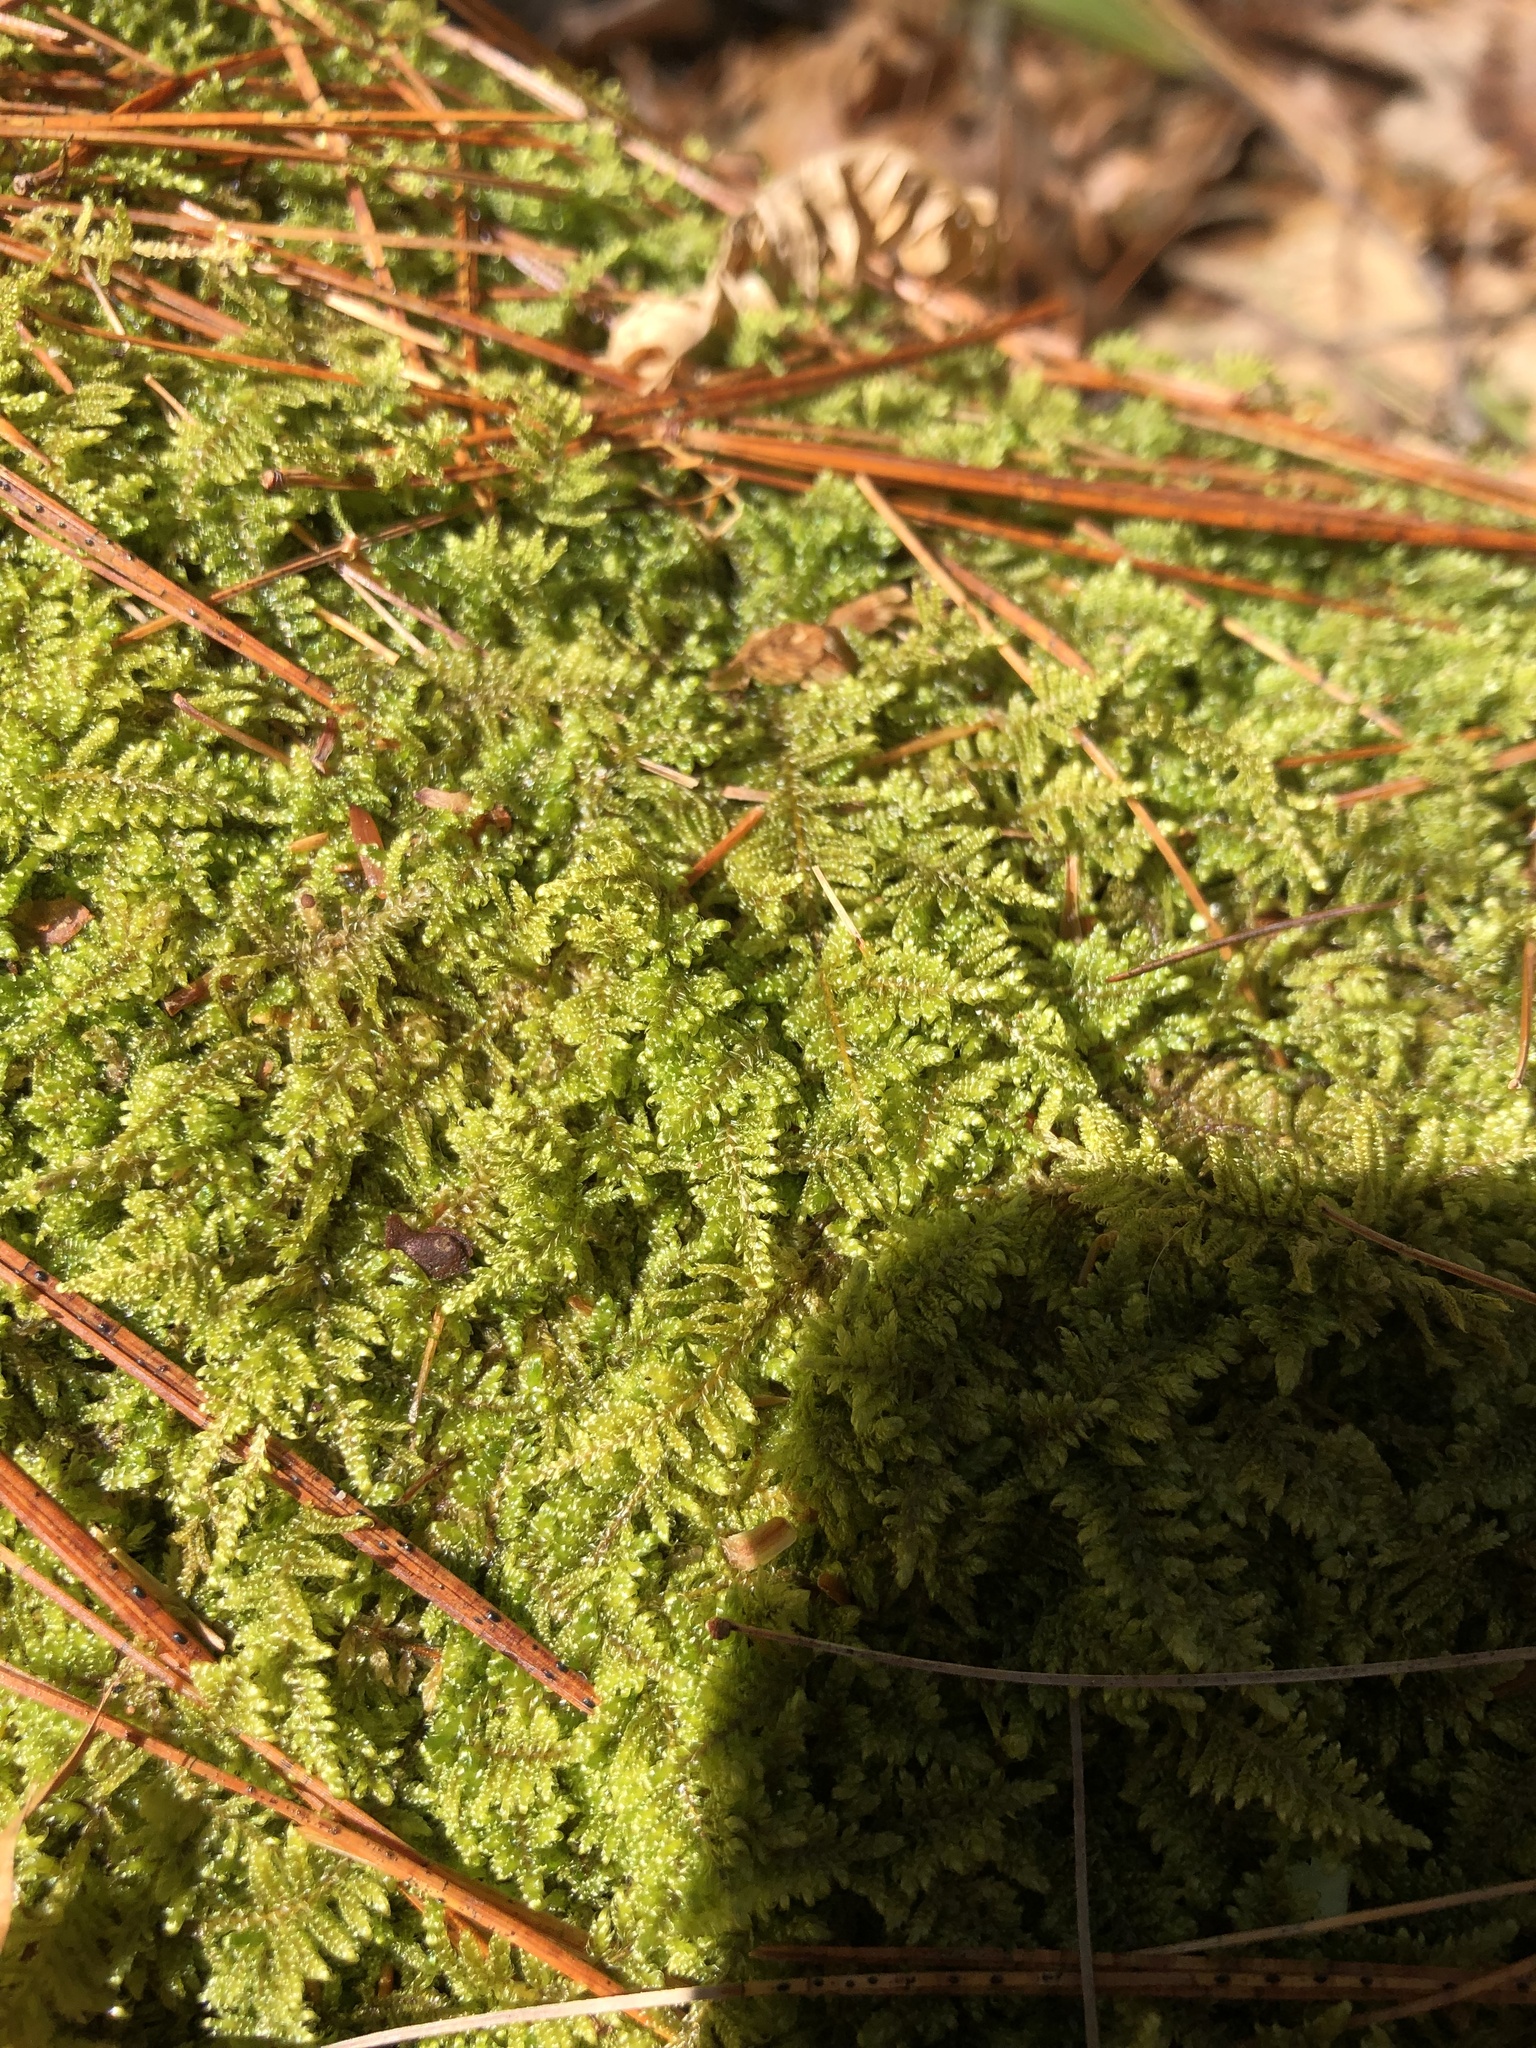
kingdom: Plantae
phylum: Bryophyta
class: Bryopsida
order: Hypnales
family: Callicladiaceae
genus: Callicladium
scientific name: Callicladium imponens
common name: Brocade moss
